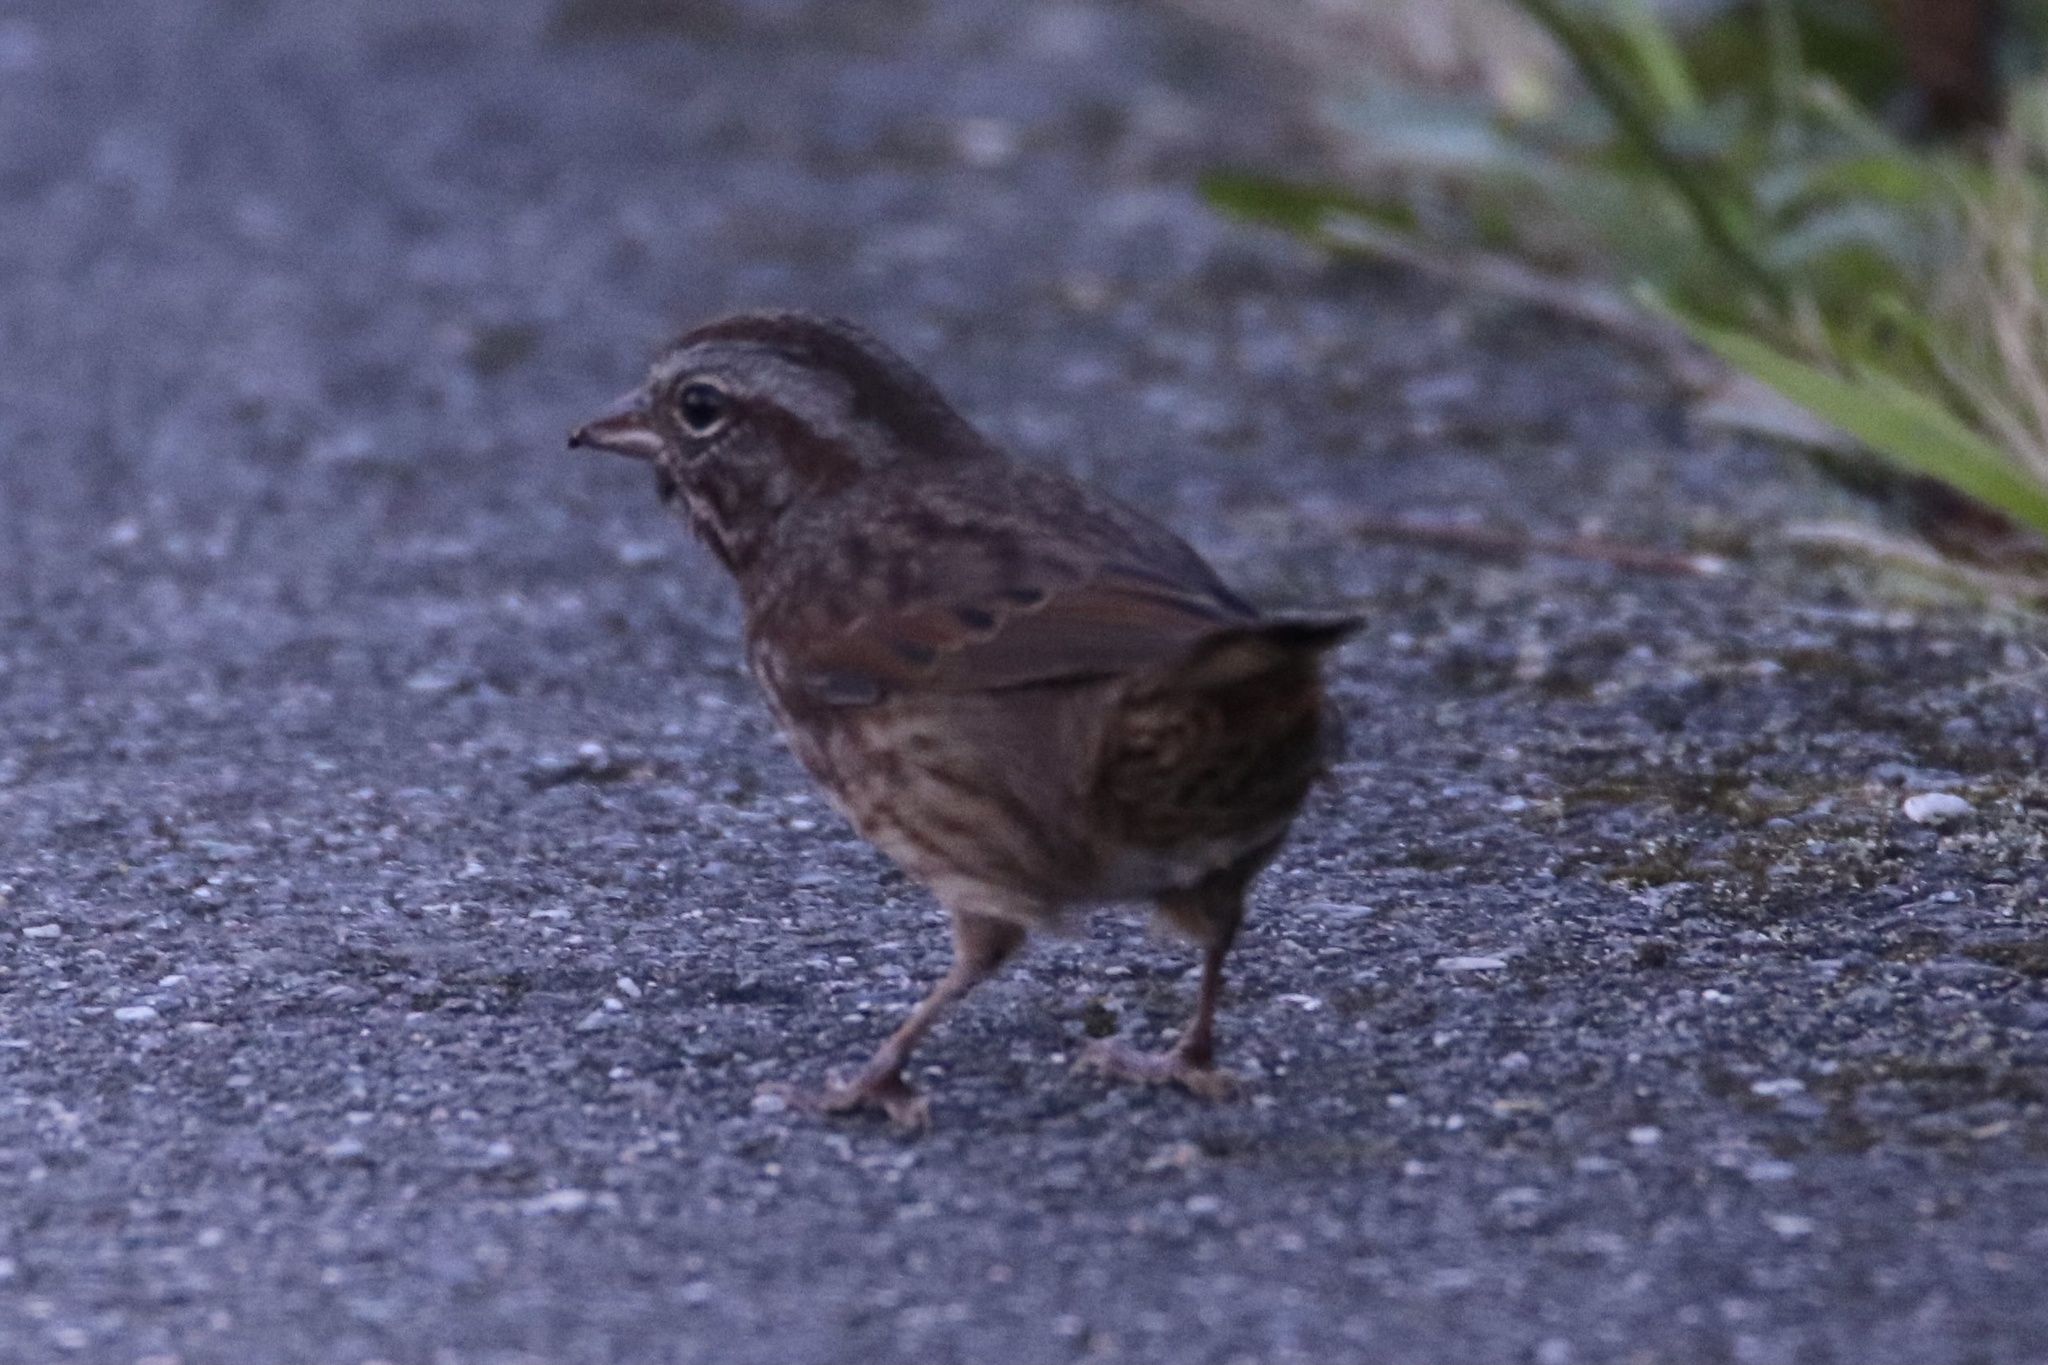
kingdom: Animalia
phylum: Chordata
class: Aves
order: Passeriformes
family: Passerellidae
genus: Melospiza
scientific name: Melospiza melodia
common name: Song sparrow
